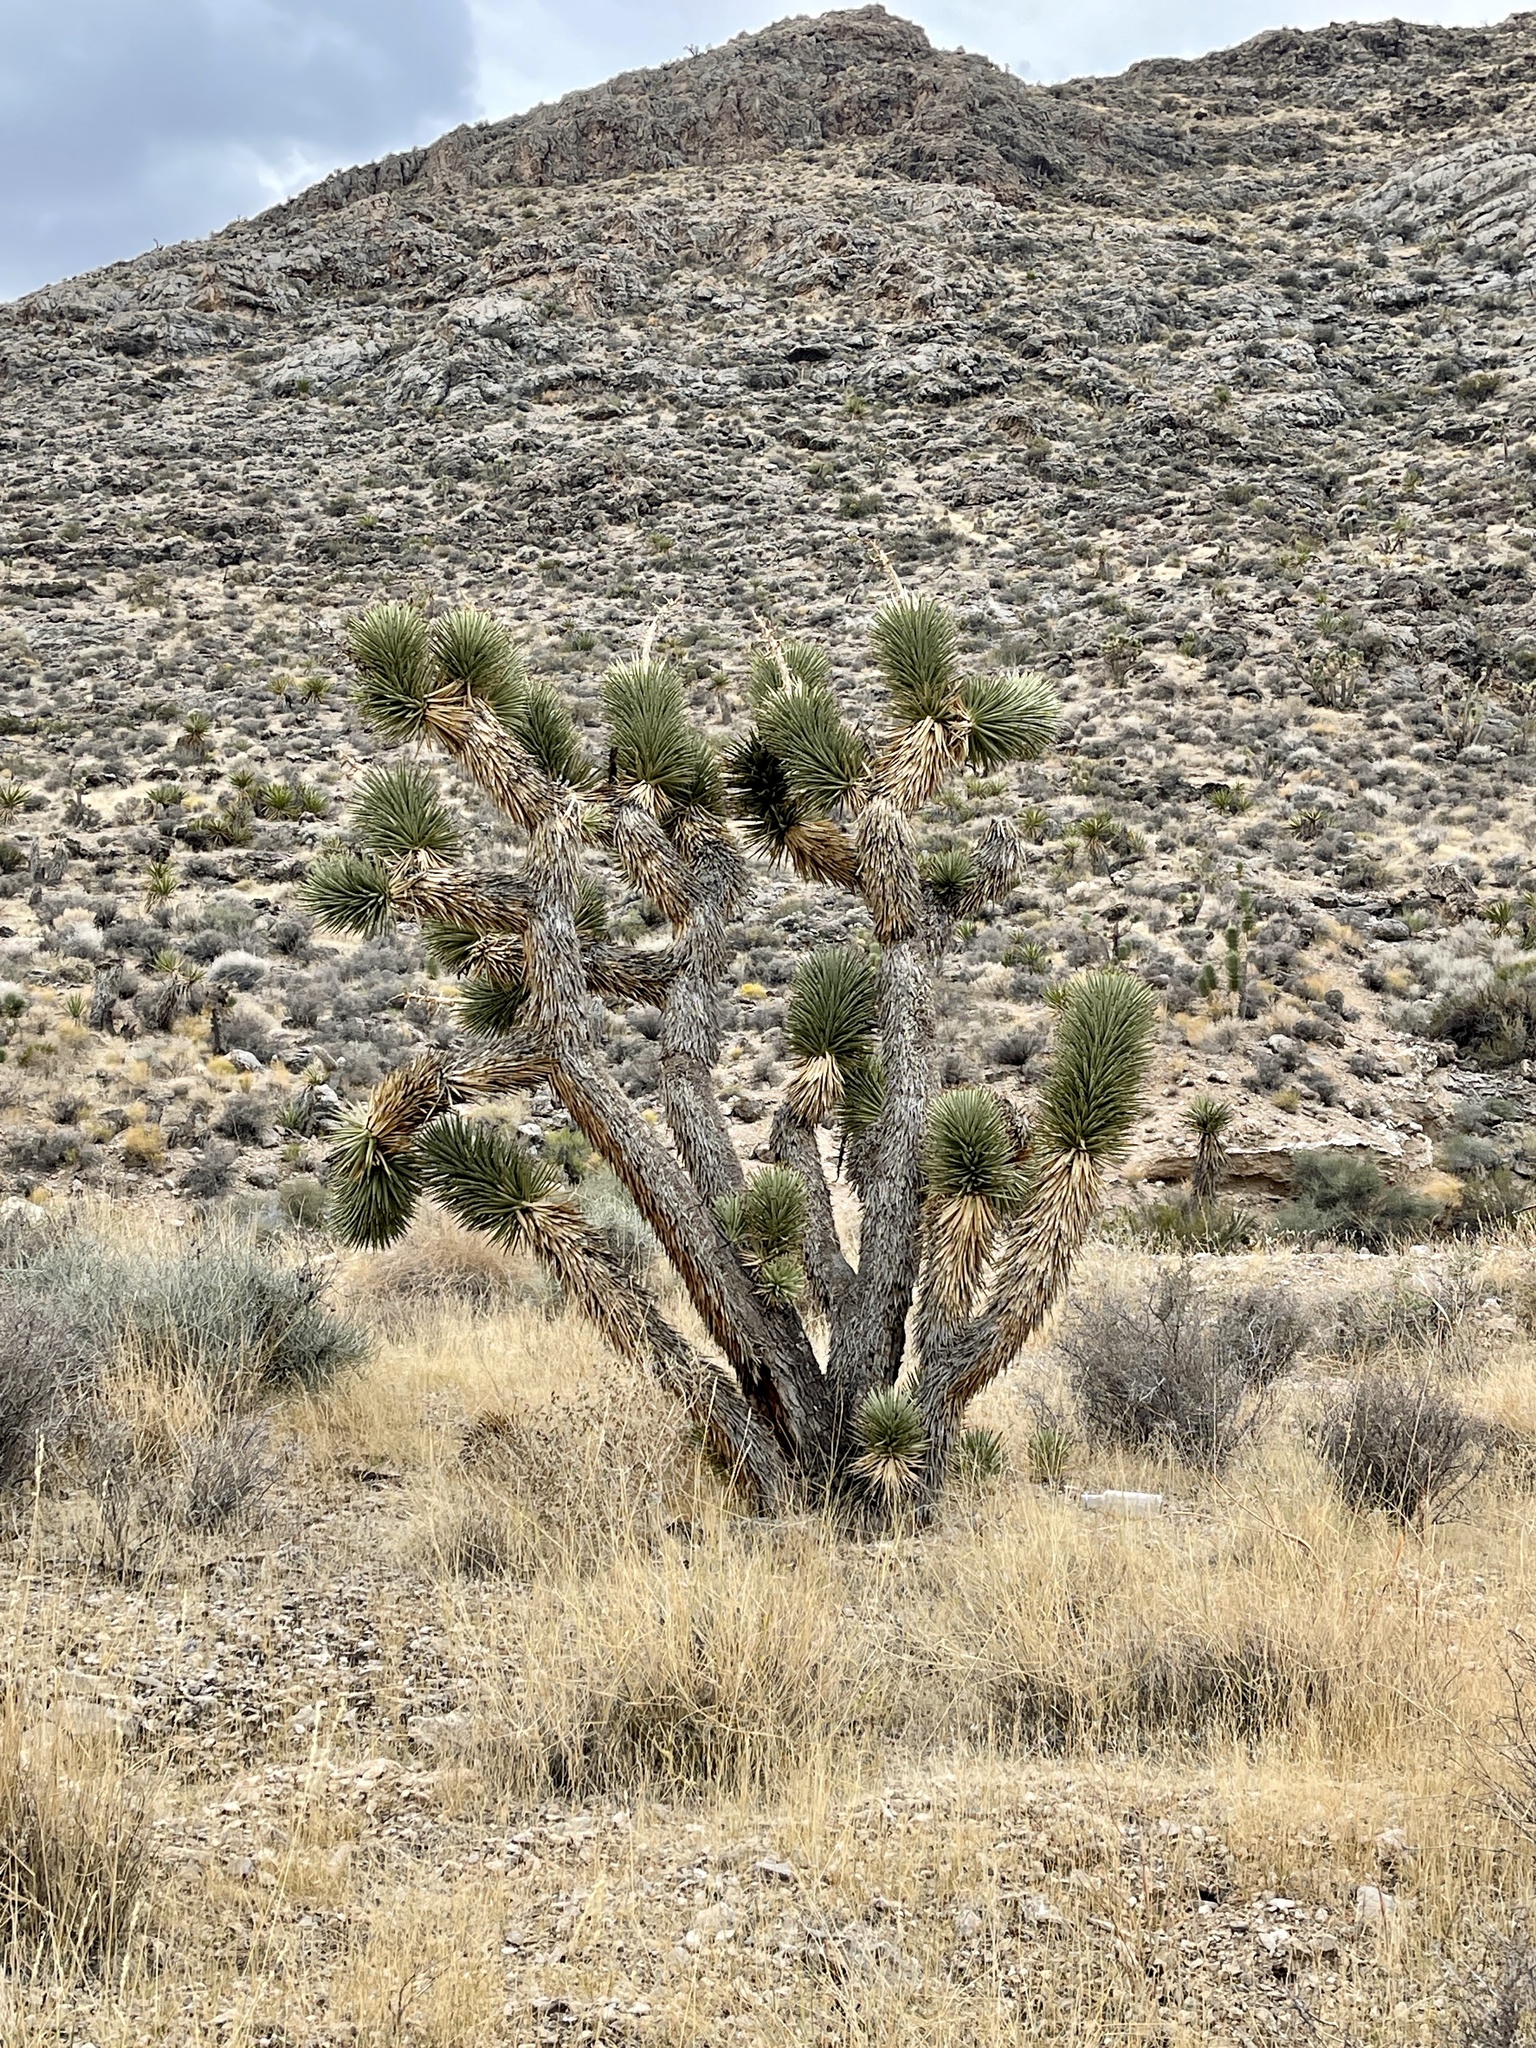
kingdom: Plantae
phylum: Tracheophyta
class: Liliopsida
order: Asparagales
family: Asparagaceae
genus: Yucca
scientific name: Yucca brevifolia
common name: Joshua tree
